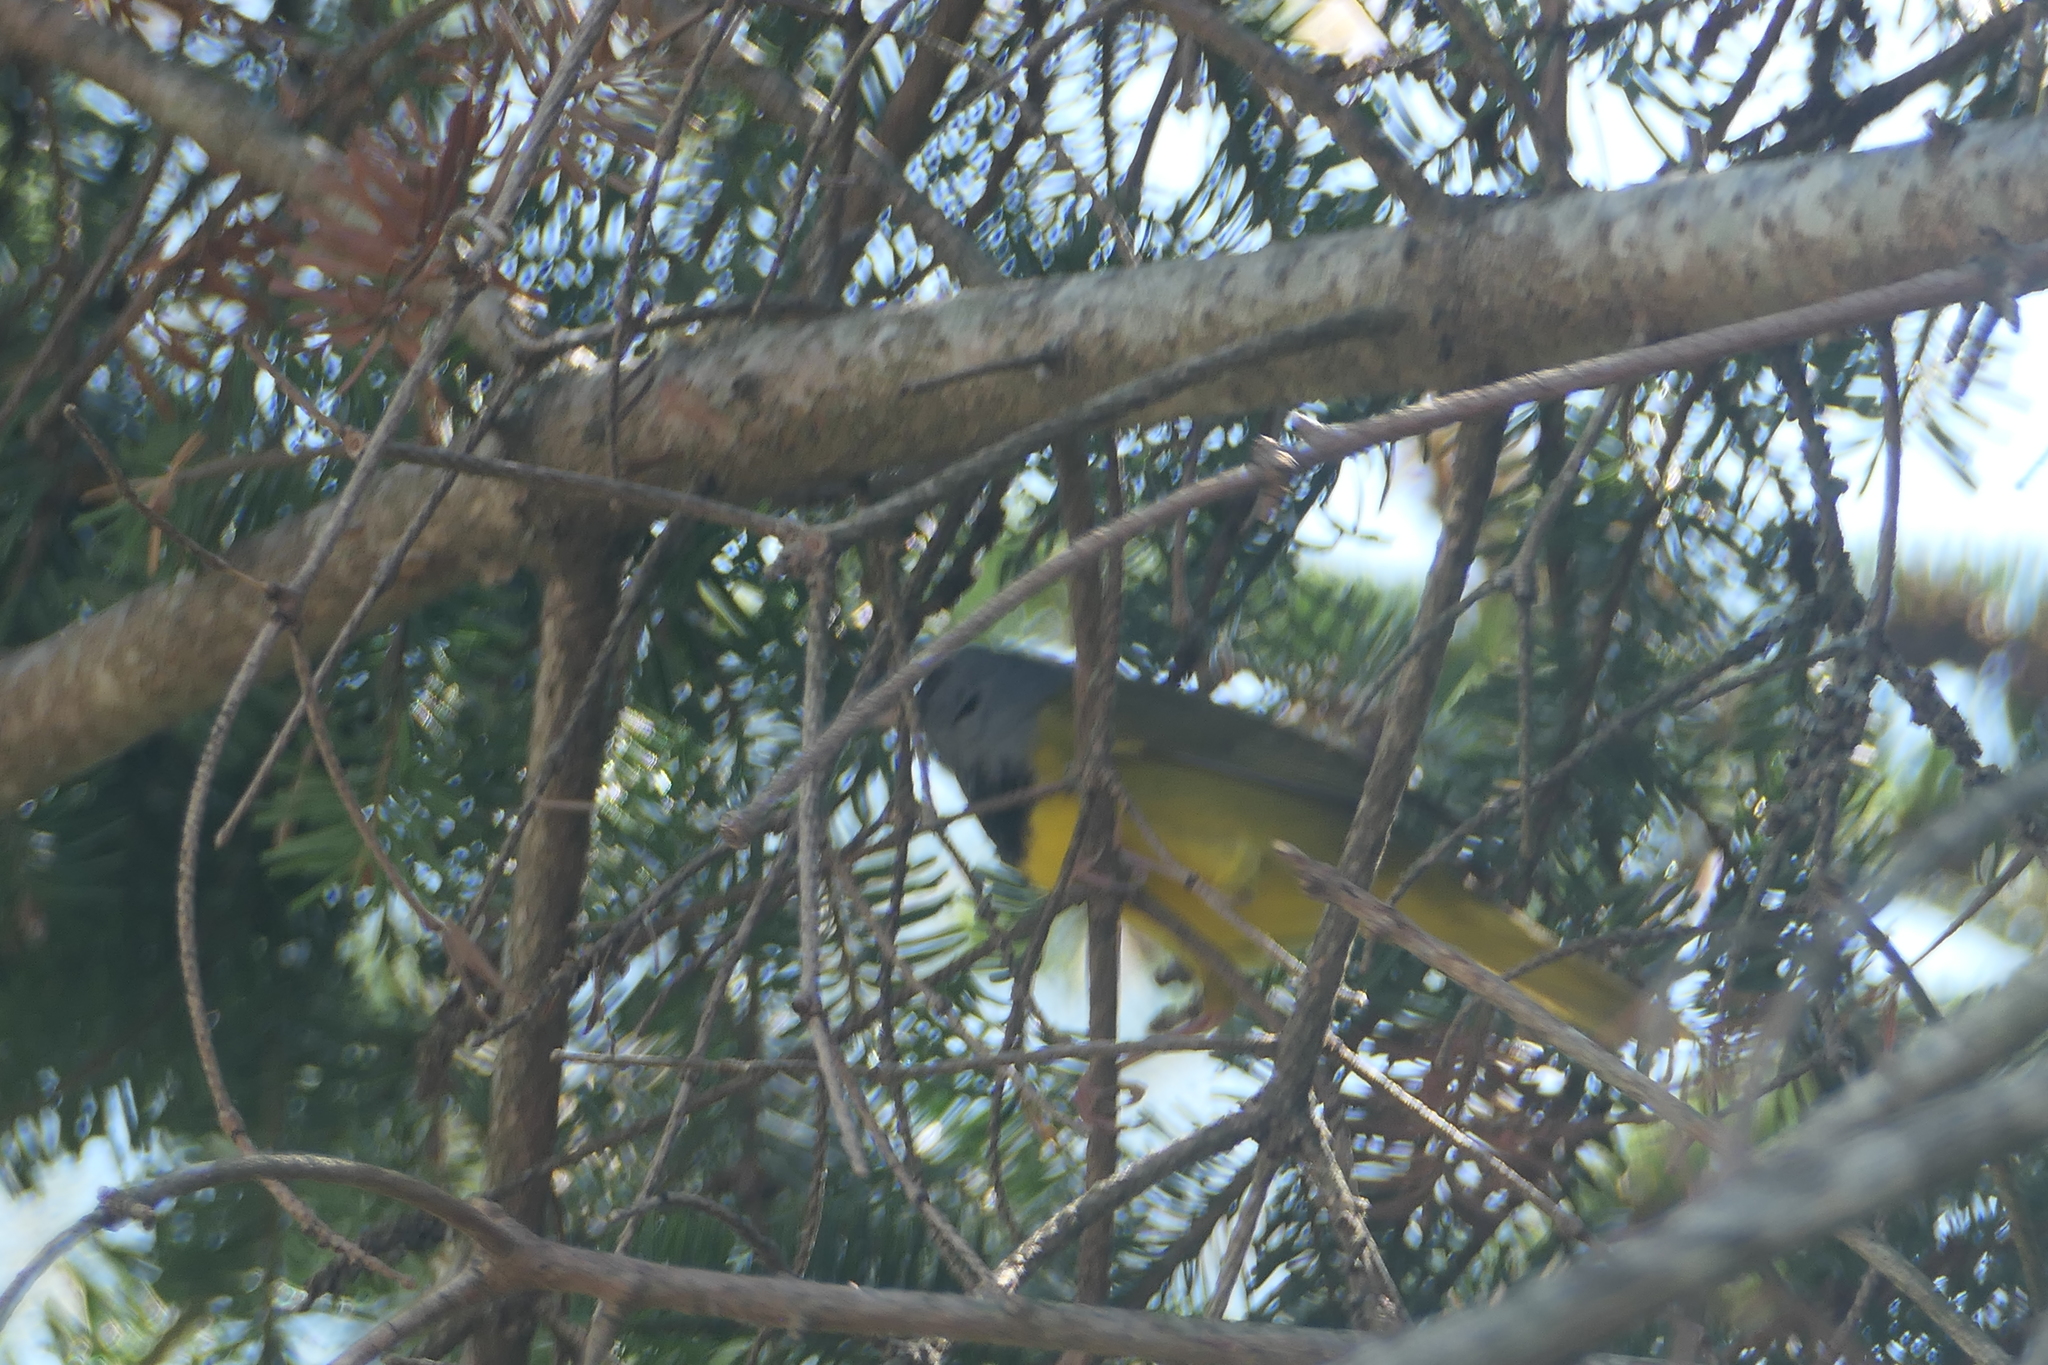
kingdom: Animalia
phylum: Chordata
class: Aves
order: Passeriformes
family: Parulidae
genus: Geothlypis
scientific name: Geothlypis philadelphia
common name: Mourning warbler
